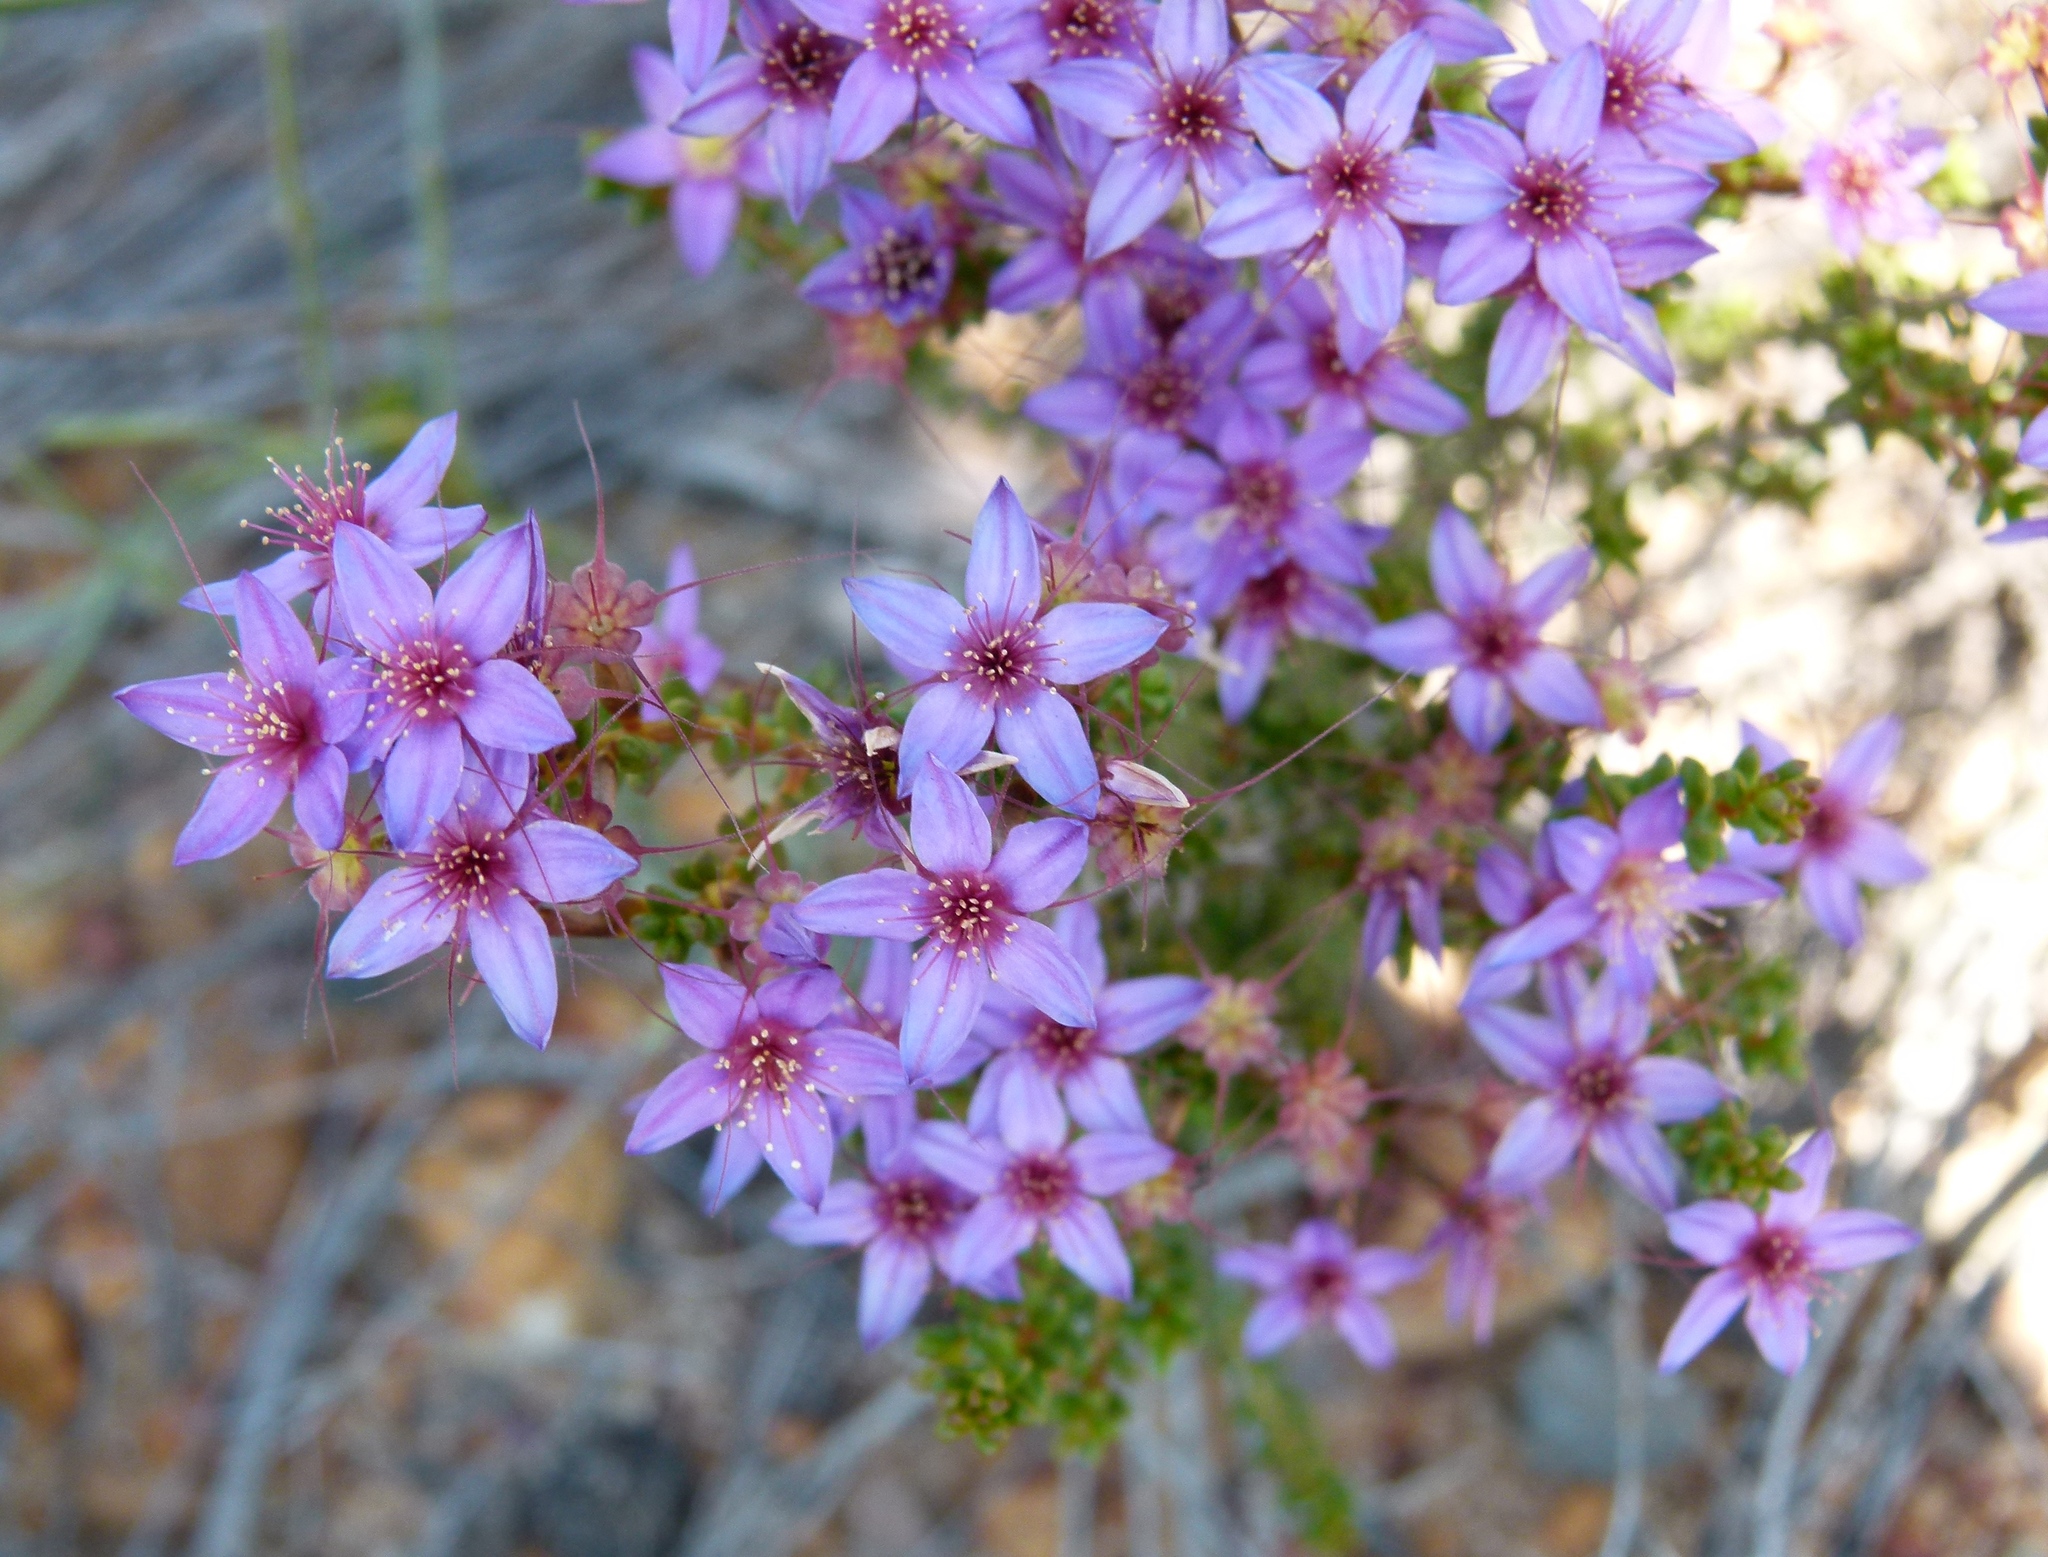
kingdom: Plantae
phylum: Tracheophyta
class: Magnoliopsida
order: Myrtales
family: Myrtaceae
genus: Calytrix
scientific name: Calytrix leschenaultii
